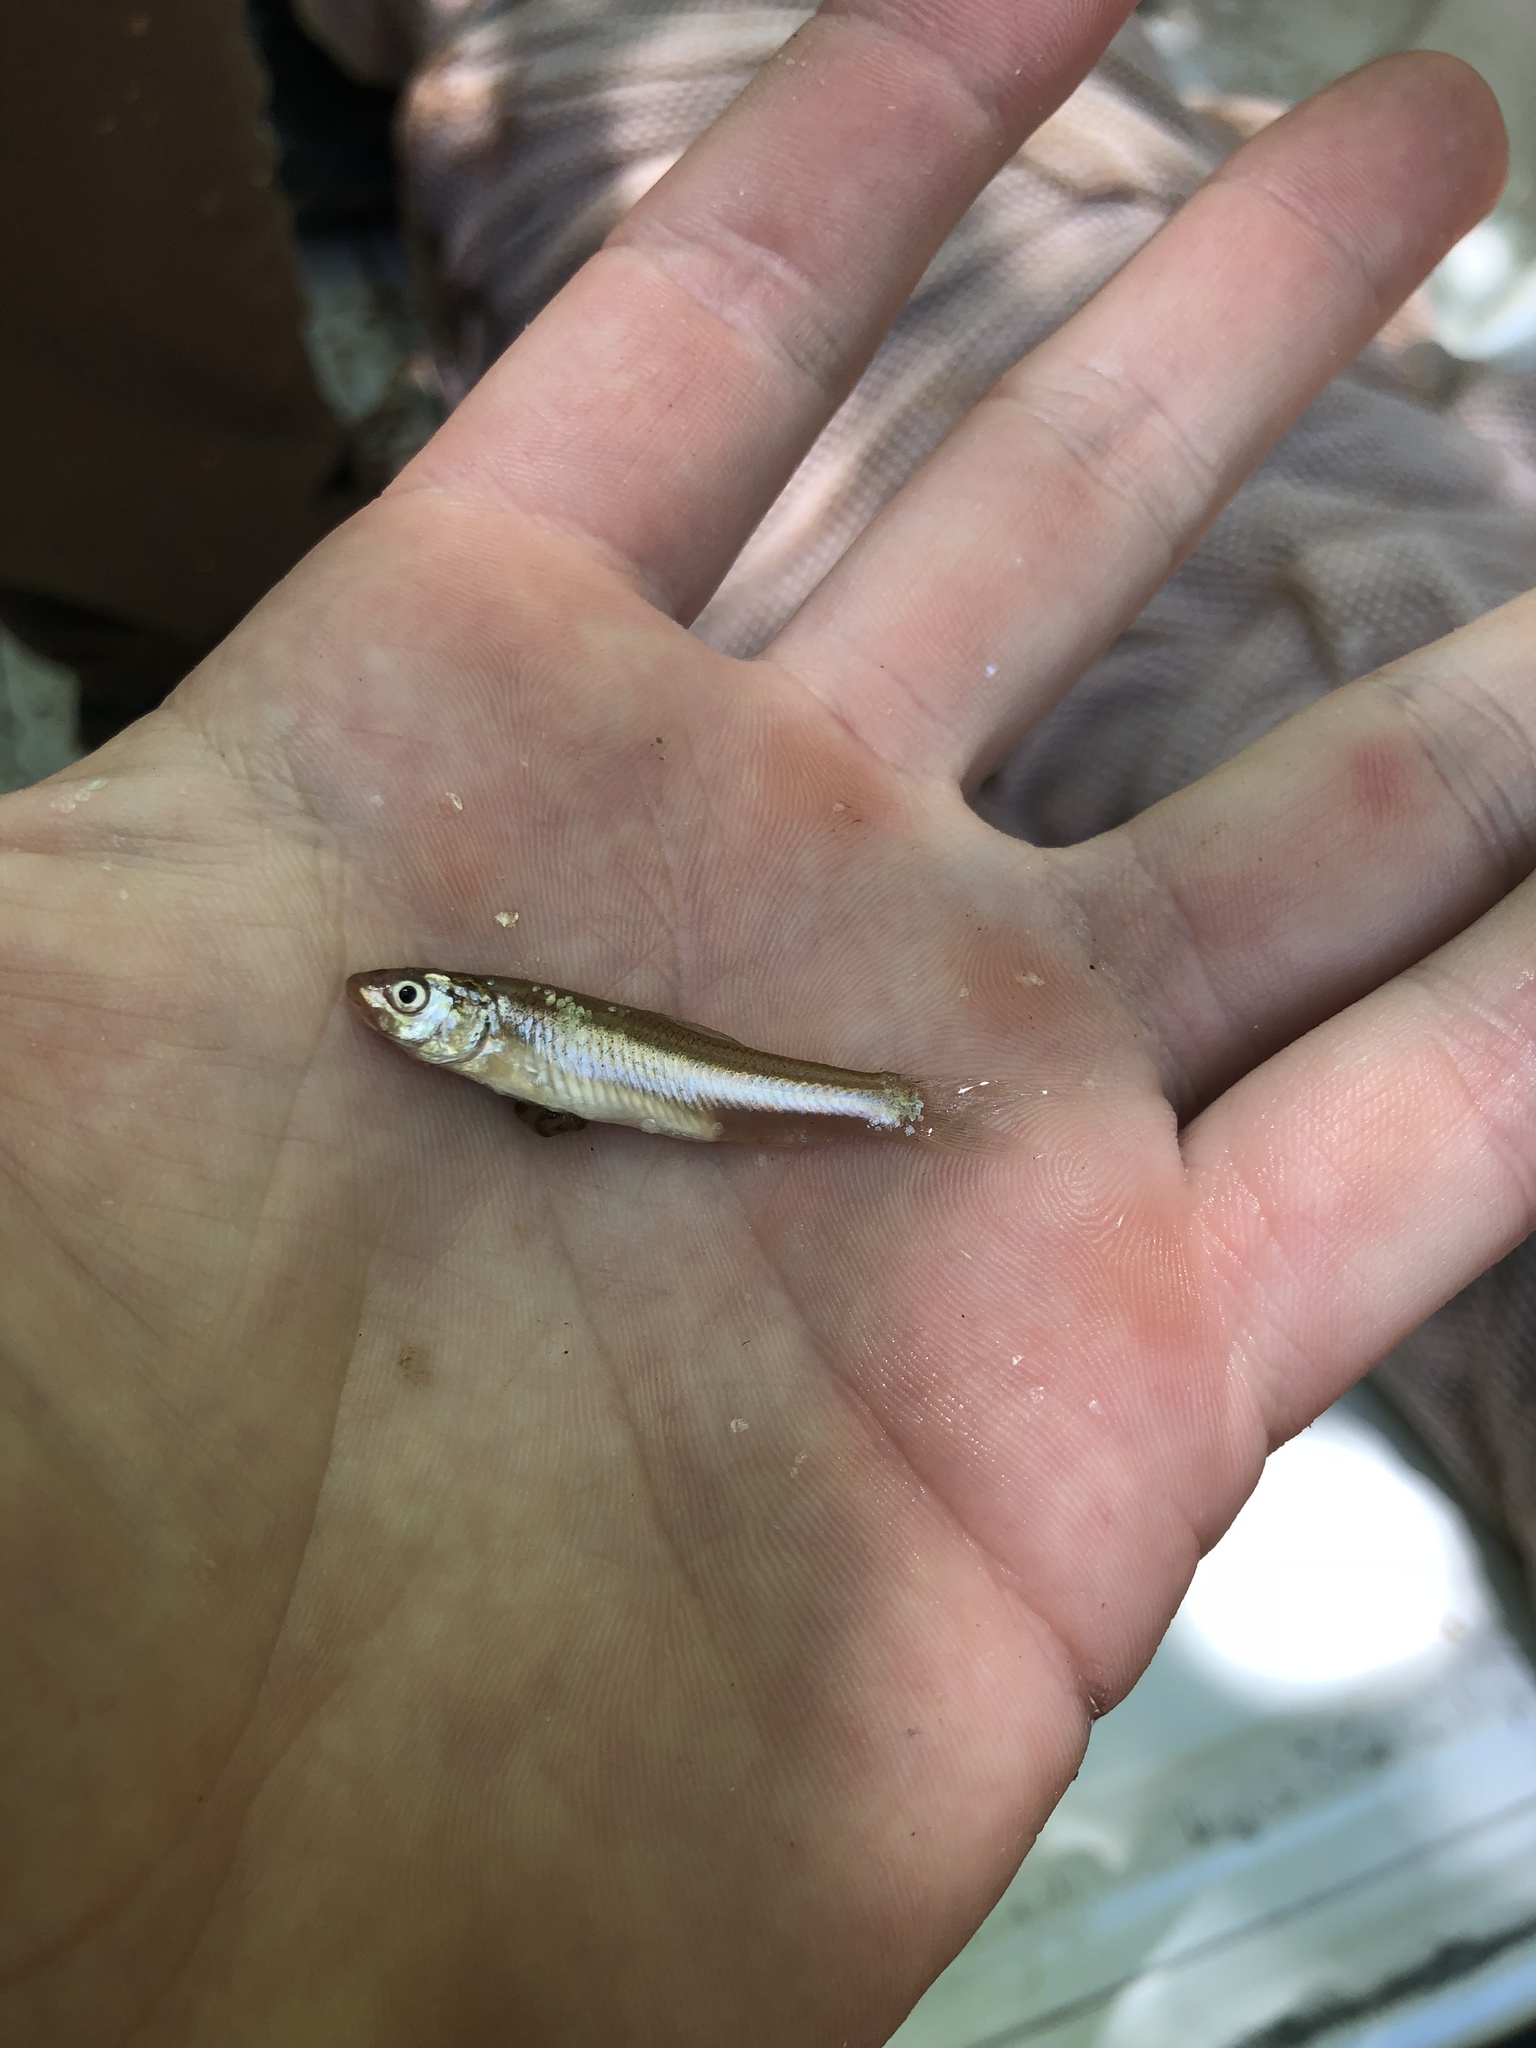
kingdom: Animalia
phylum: Chordata
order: Cypriniformes
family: Cyprinidae
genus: Hybognathus
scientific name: Hybognathus placitus
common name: Plains minnow
